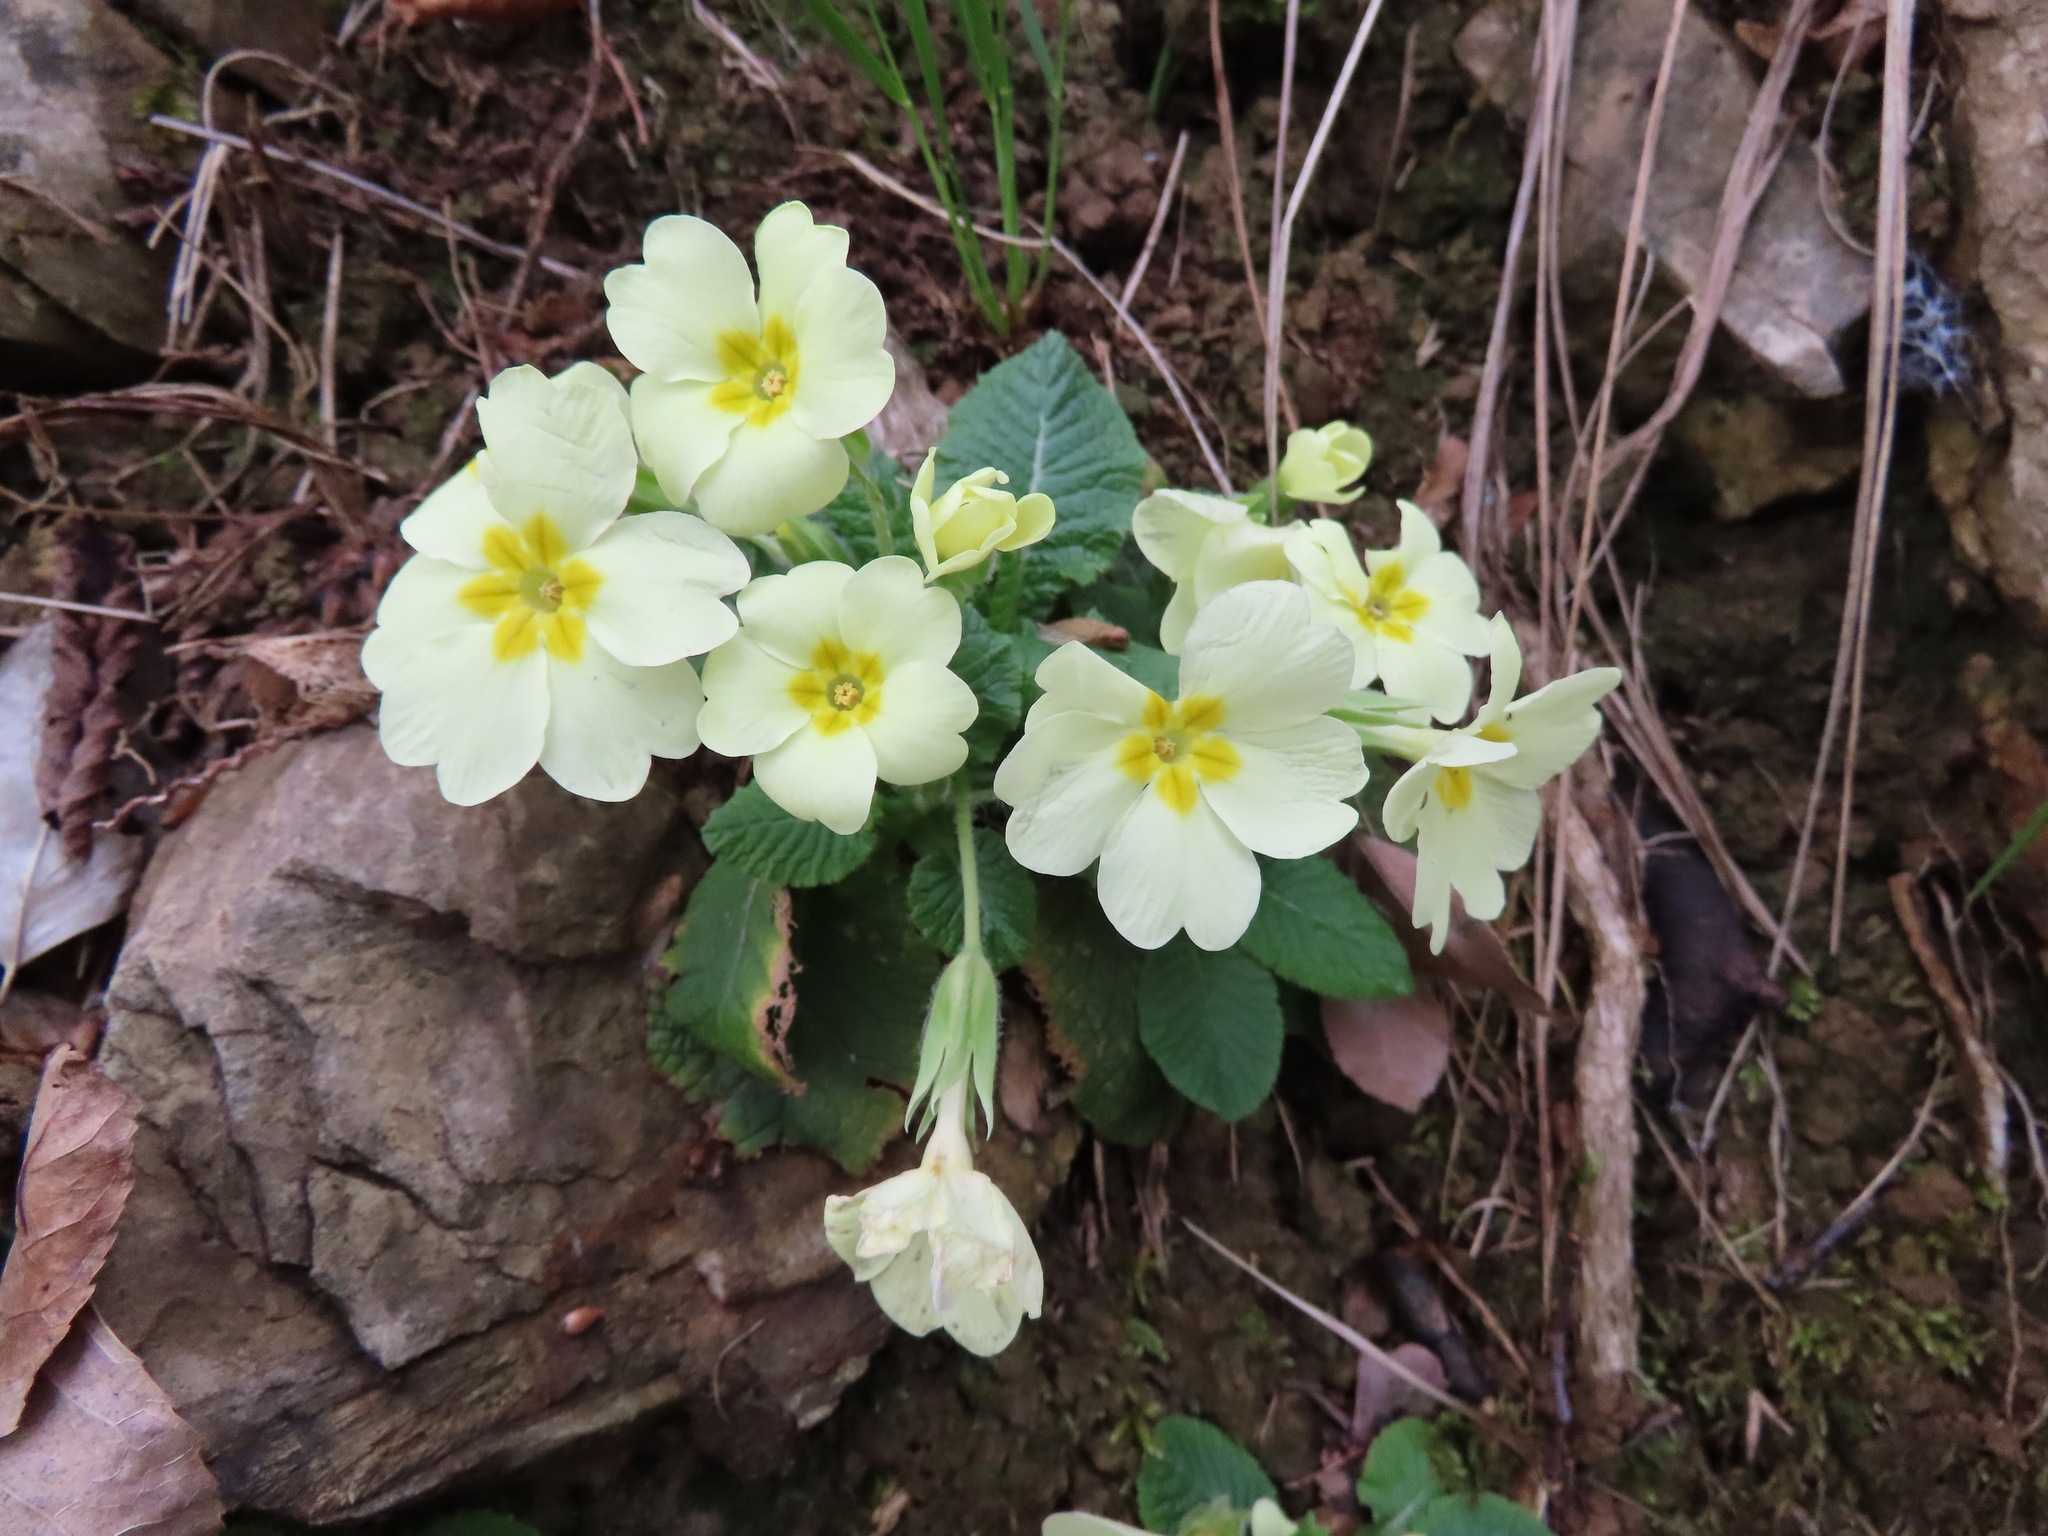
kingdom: Plantae
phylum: Tracheophyta
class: Magnoliopsida
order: Ericales
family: Primulaceae
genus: Primula
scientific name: Primula vulgaris
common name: Primrose
